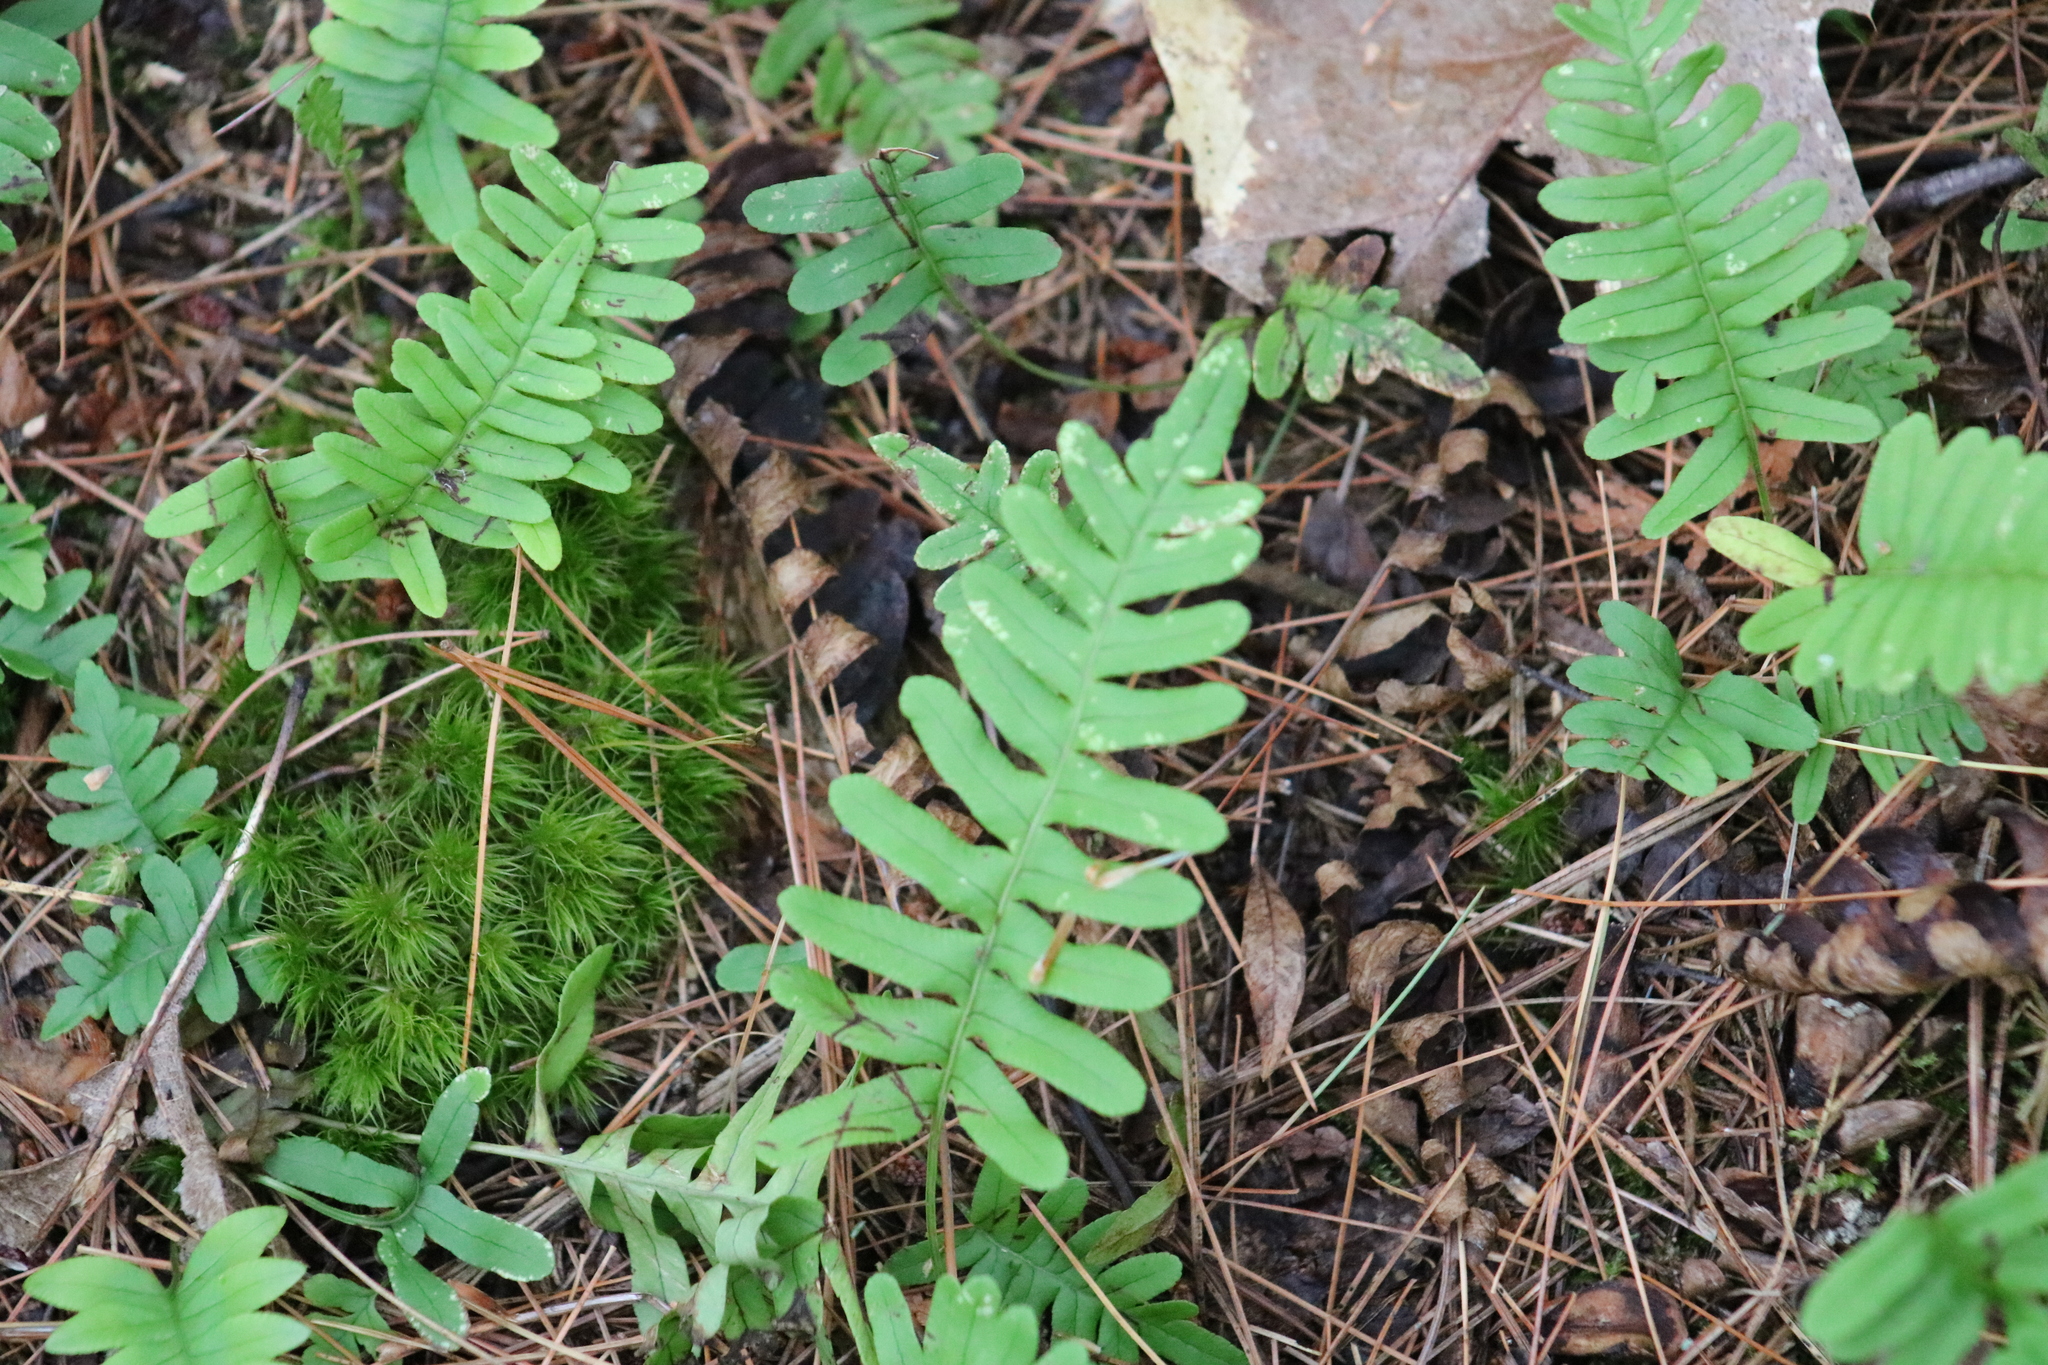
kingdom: Plantae
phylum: Tracheophyta
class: Polypodiopsida
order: Polypodiales
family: Polypodiaceae
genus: Polypodium
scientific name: Polypodium virginianum
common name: American wall fern
